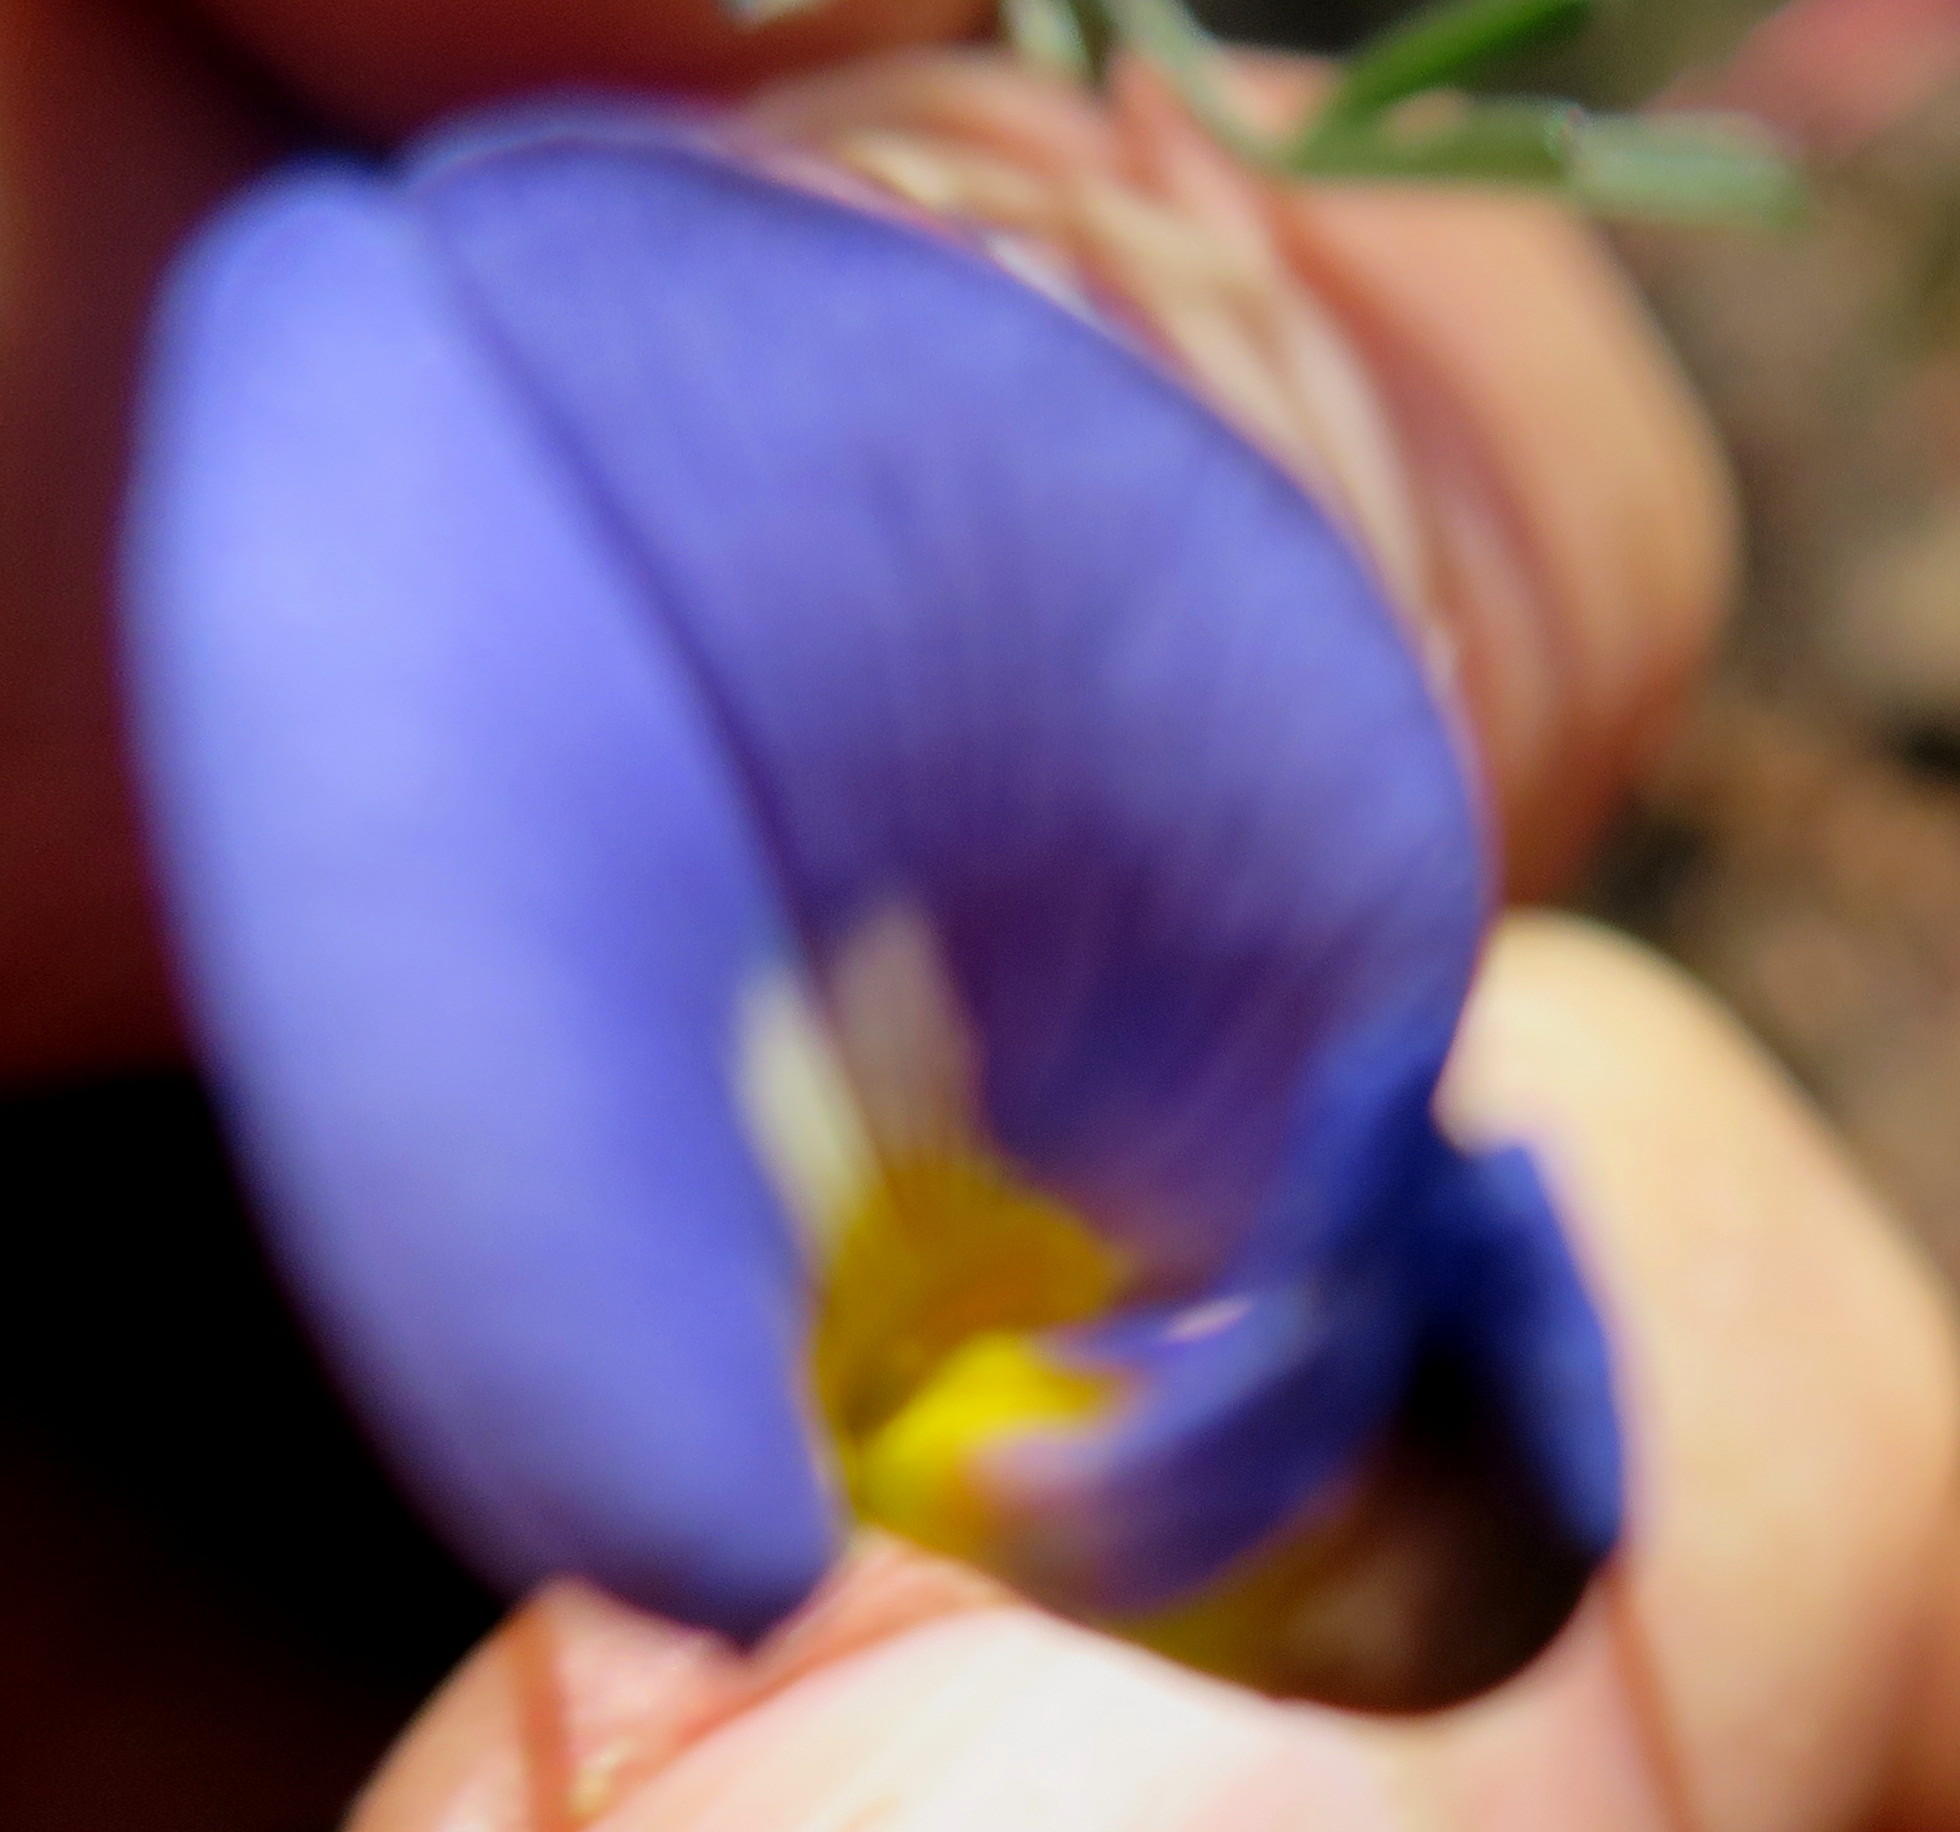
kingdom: Plantae
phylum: Tracheophyta
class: Magnoliopsida
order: Fabales
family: Fabaceae
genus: Lotononis
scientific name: Lotononis filiformis
